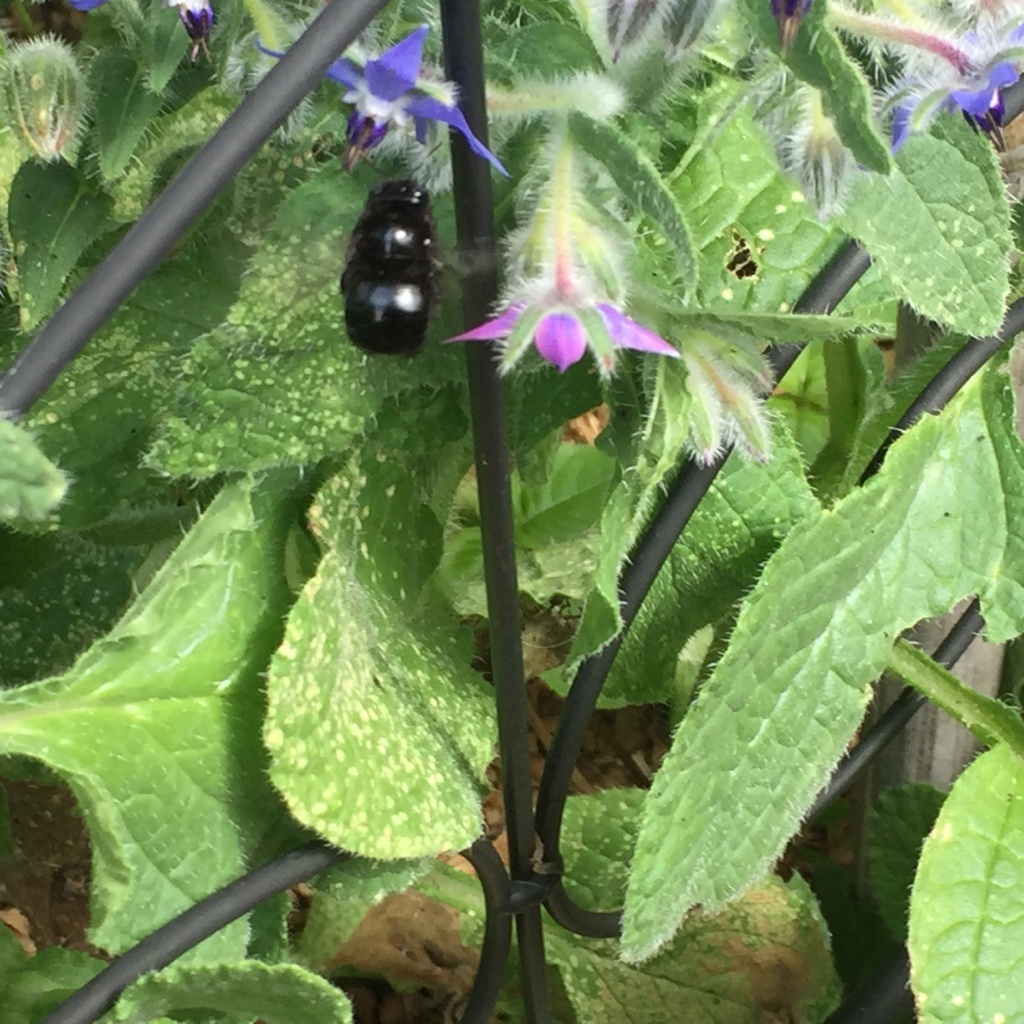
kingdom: Animalia
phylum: Arthropoda
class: Insecta
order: Hymenoptera
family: Apidae
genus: Xylocopa
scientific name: Xylocopa tabaniformis
